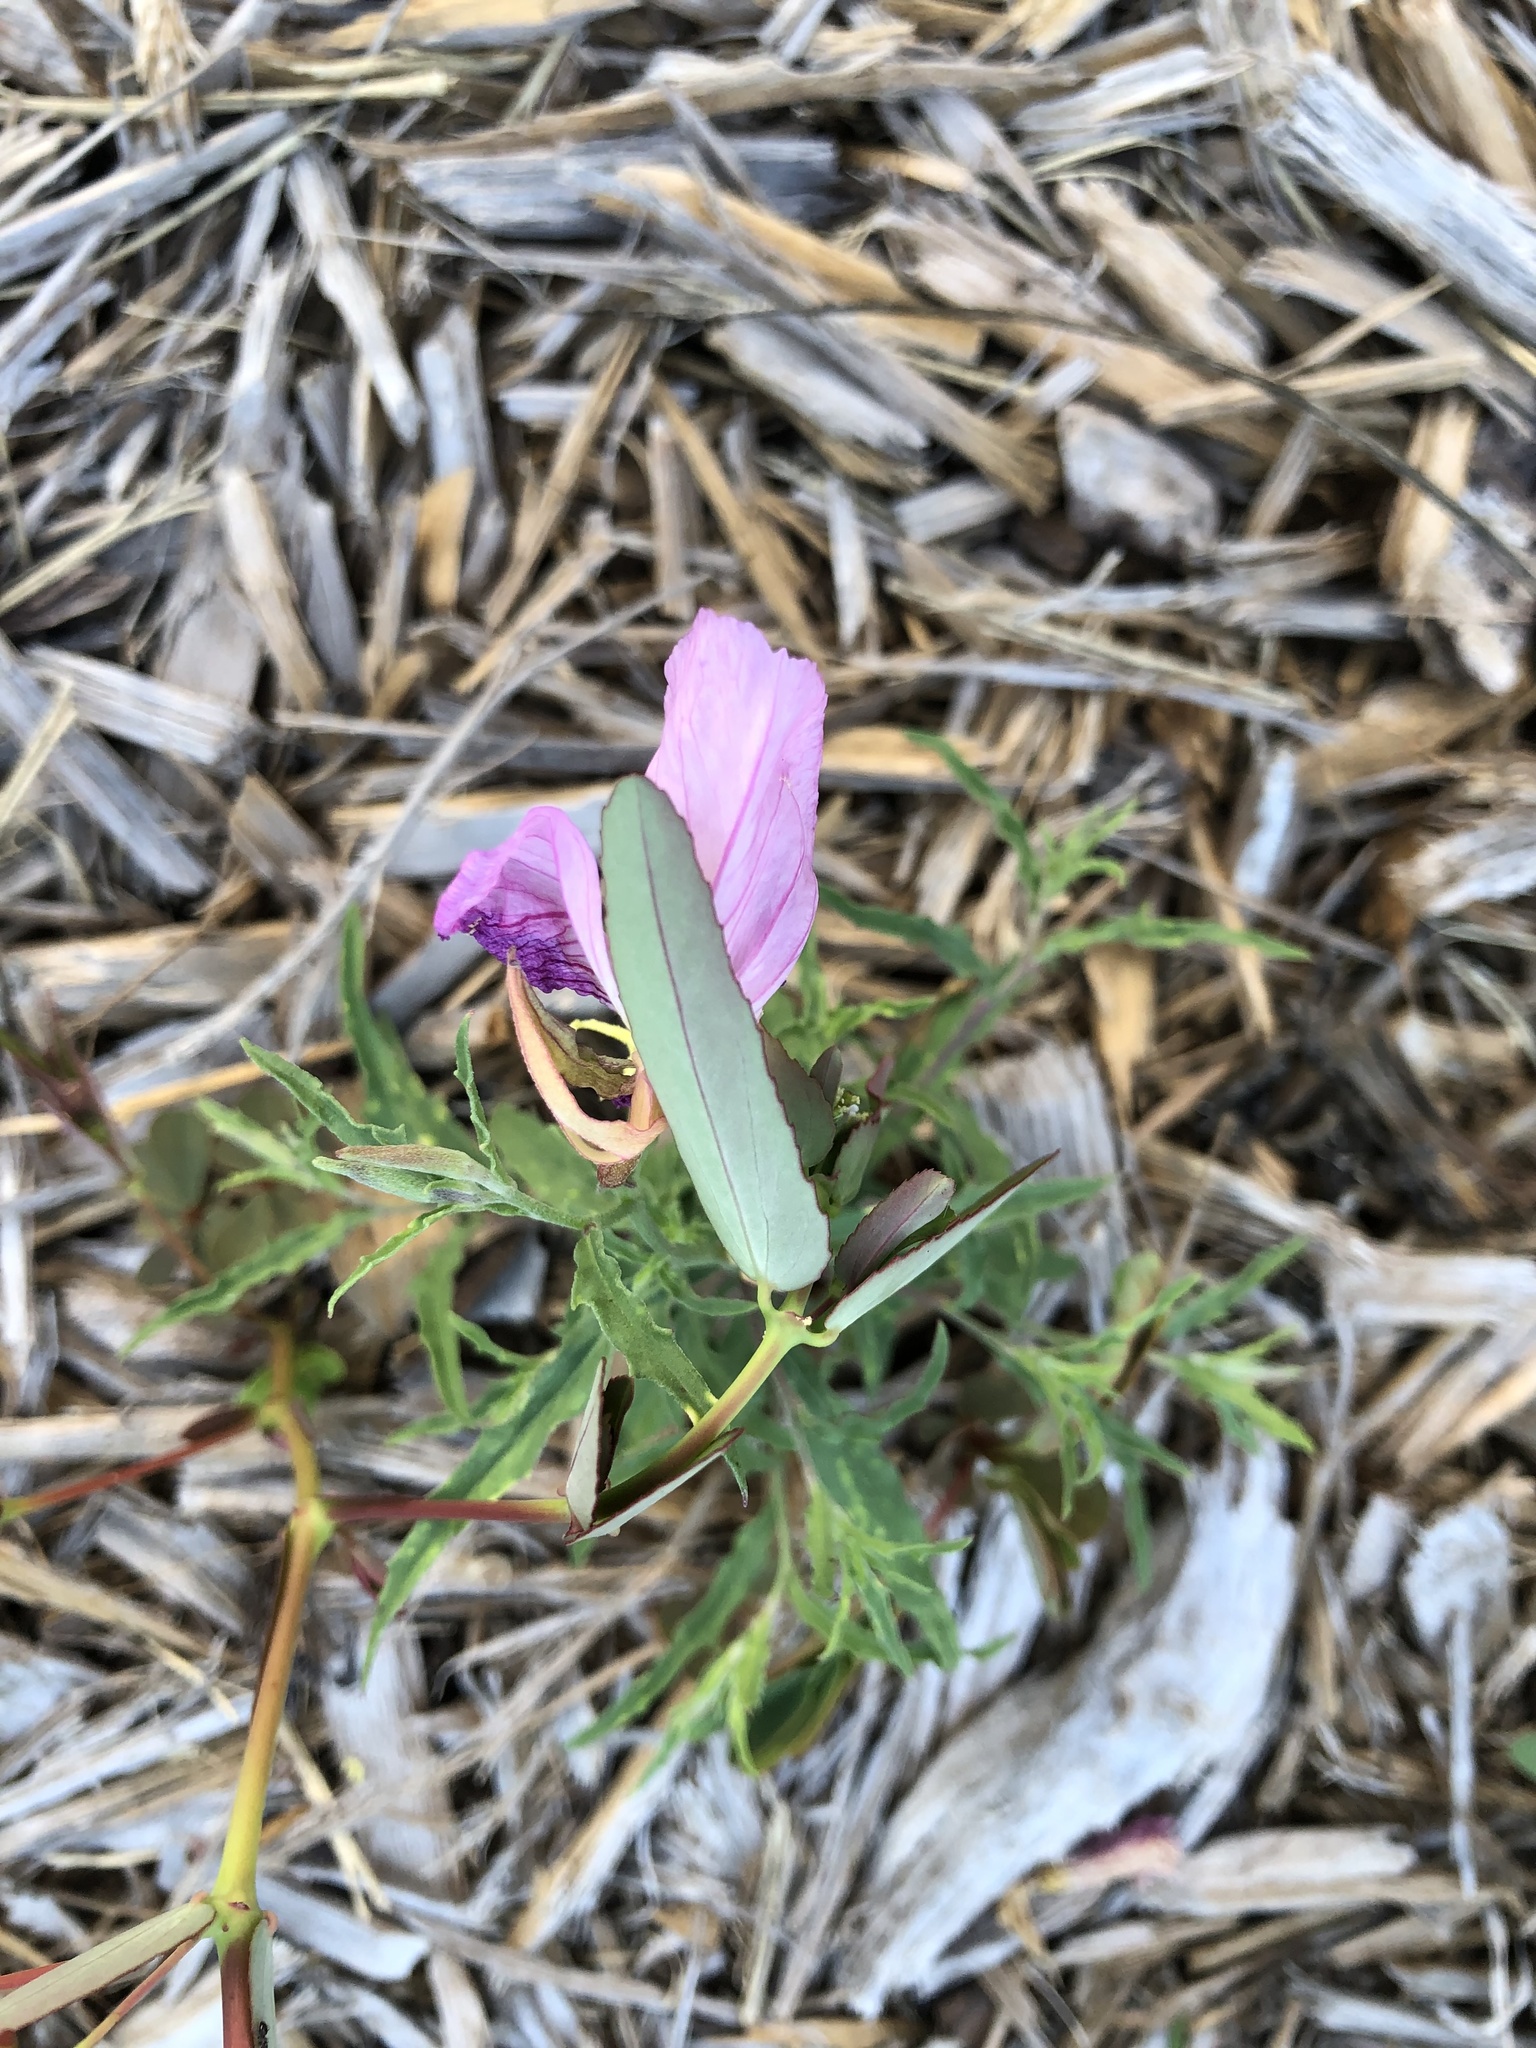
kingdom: Plantae
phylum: Tracheophyta
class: Magnoliopsida
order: Myrtales
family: Onagraceae
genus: Oenothera
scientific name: Oenothera speciosa
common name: White evening-primrose
